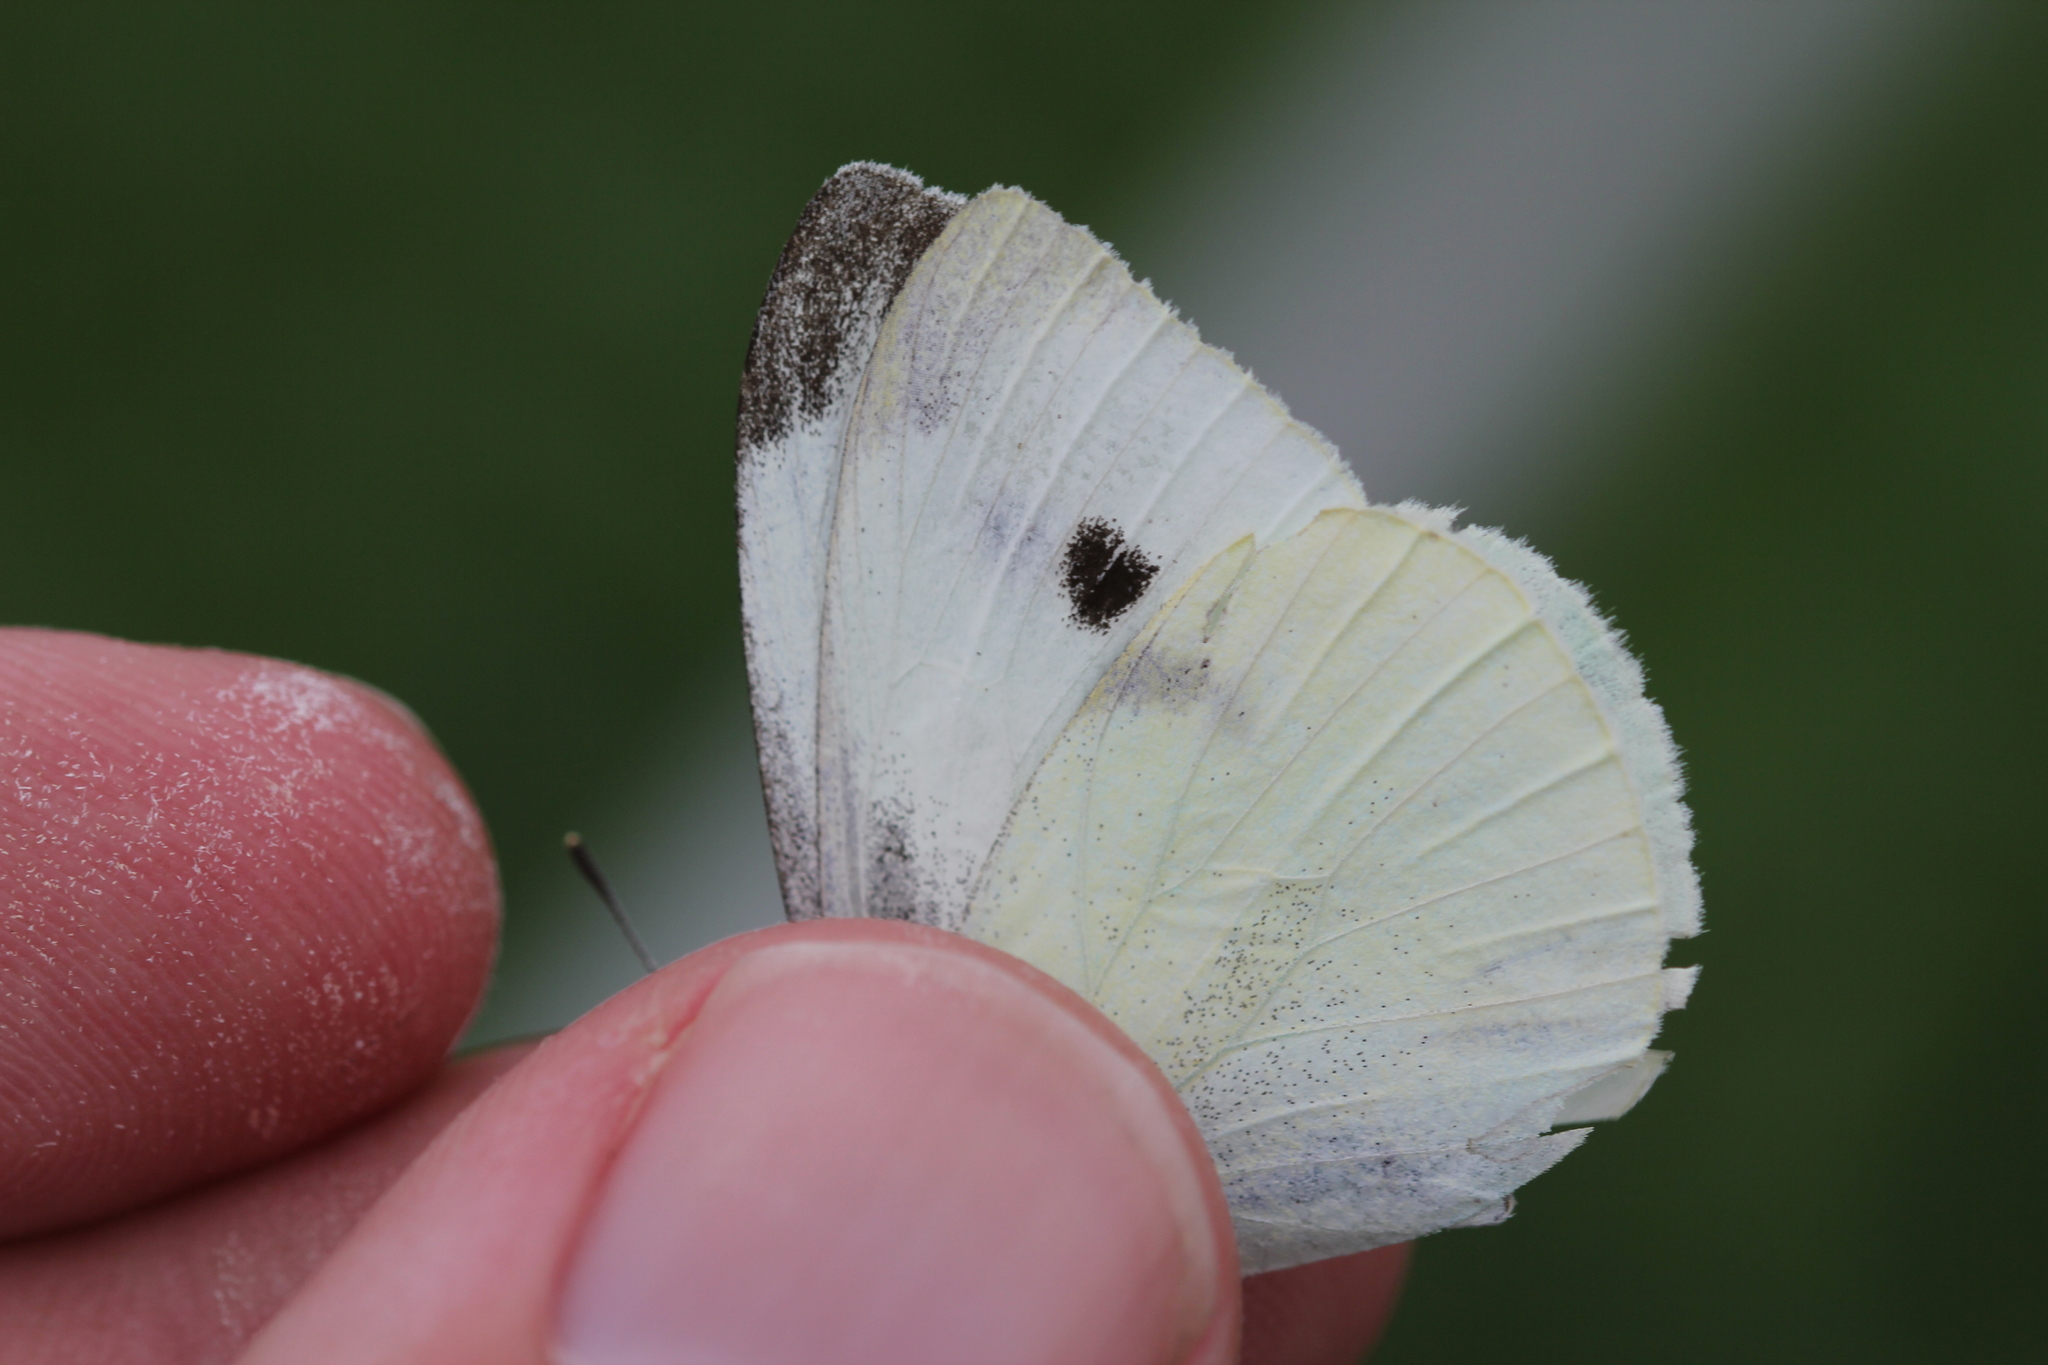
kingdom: Animalia
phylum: Arthropoda
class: Insecta
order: Lepidoptera
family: Pieridae
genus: Pieris
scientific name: Pieris rapae
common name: Small white
